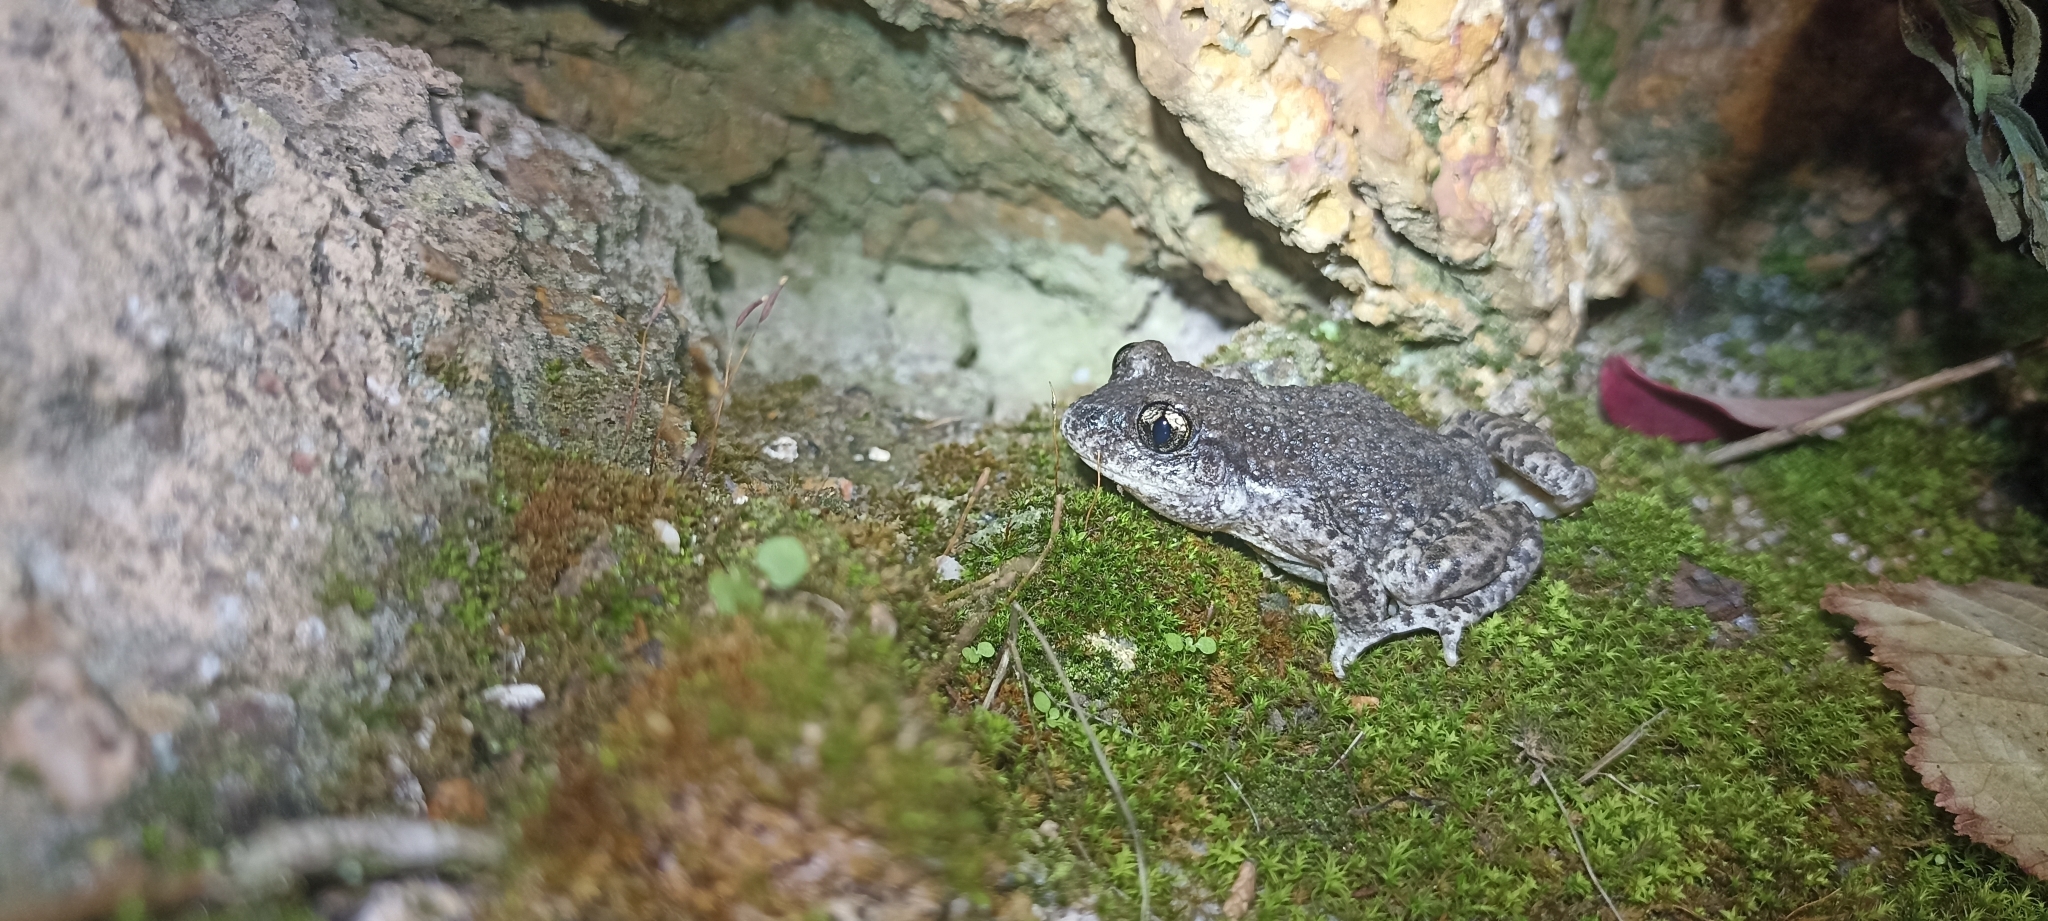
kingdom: Animalia
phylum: Chordata
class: Amphibia
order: Anura
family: Alytidae
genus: Alytes
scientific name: Alytes obstetricans
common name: Midwife toad
